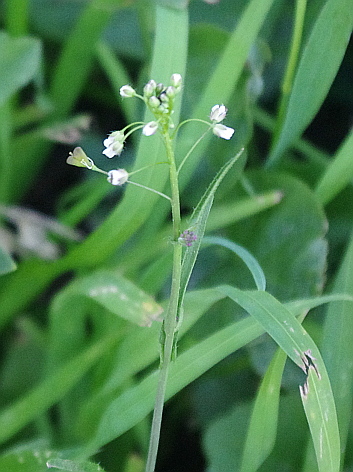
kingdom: Plantae
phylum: Tracheophyta
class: Magnoliopsida
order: Brassicales
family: Brassicaceae
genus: Capsella
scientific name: Capsella bursa-pastoris
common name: Shepherd's purse
